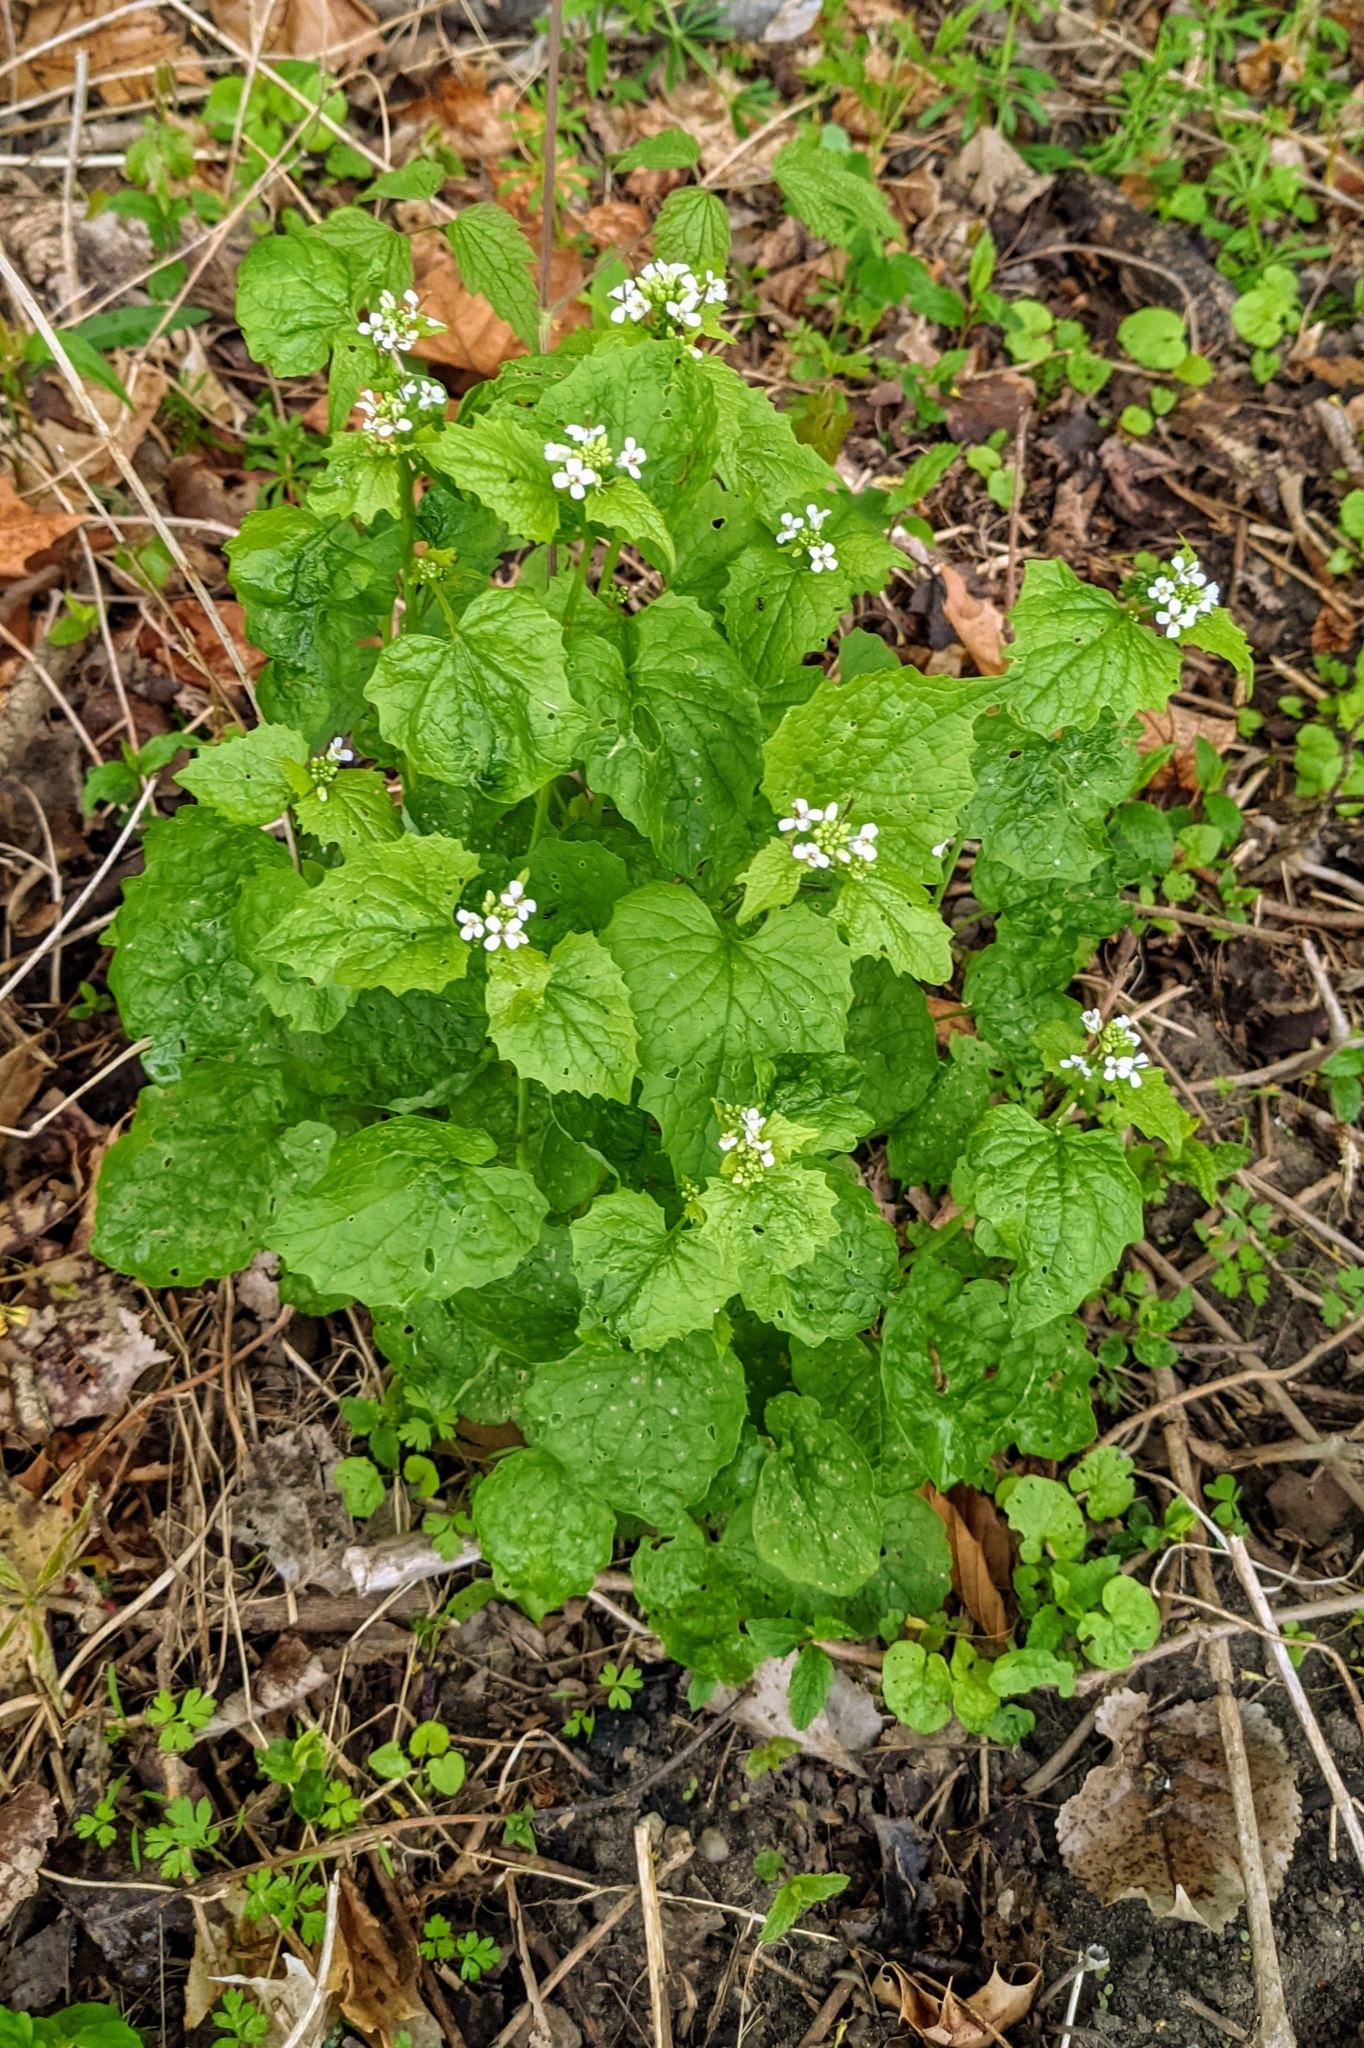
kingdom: Plantae
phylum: Tracheophyta
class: Magnoliopsida
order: Brassicales
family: Brassicaceae
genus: Alliaria
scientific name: Alliaria petiolata
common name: Garlic mustard
